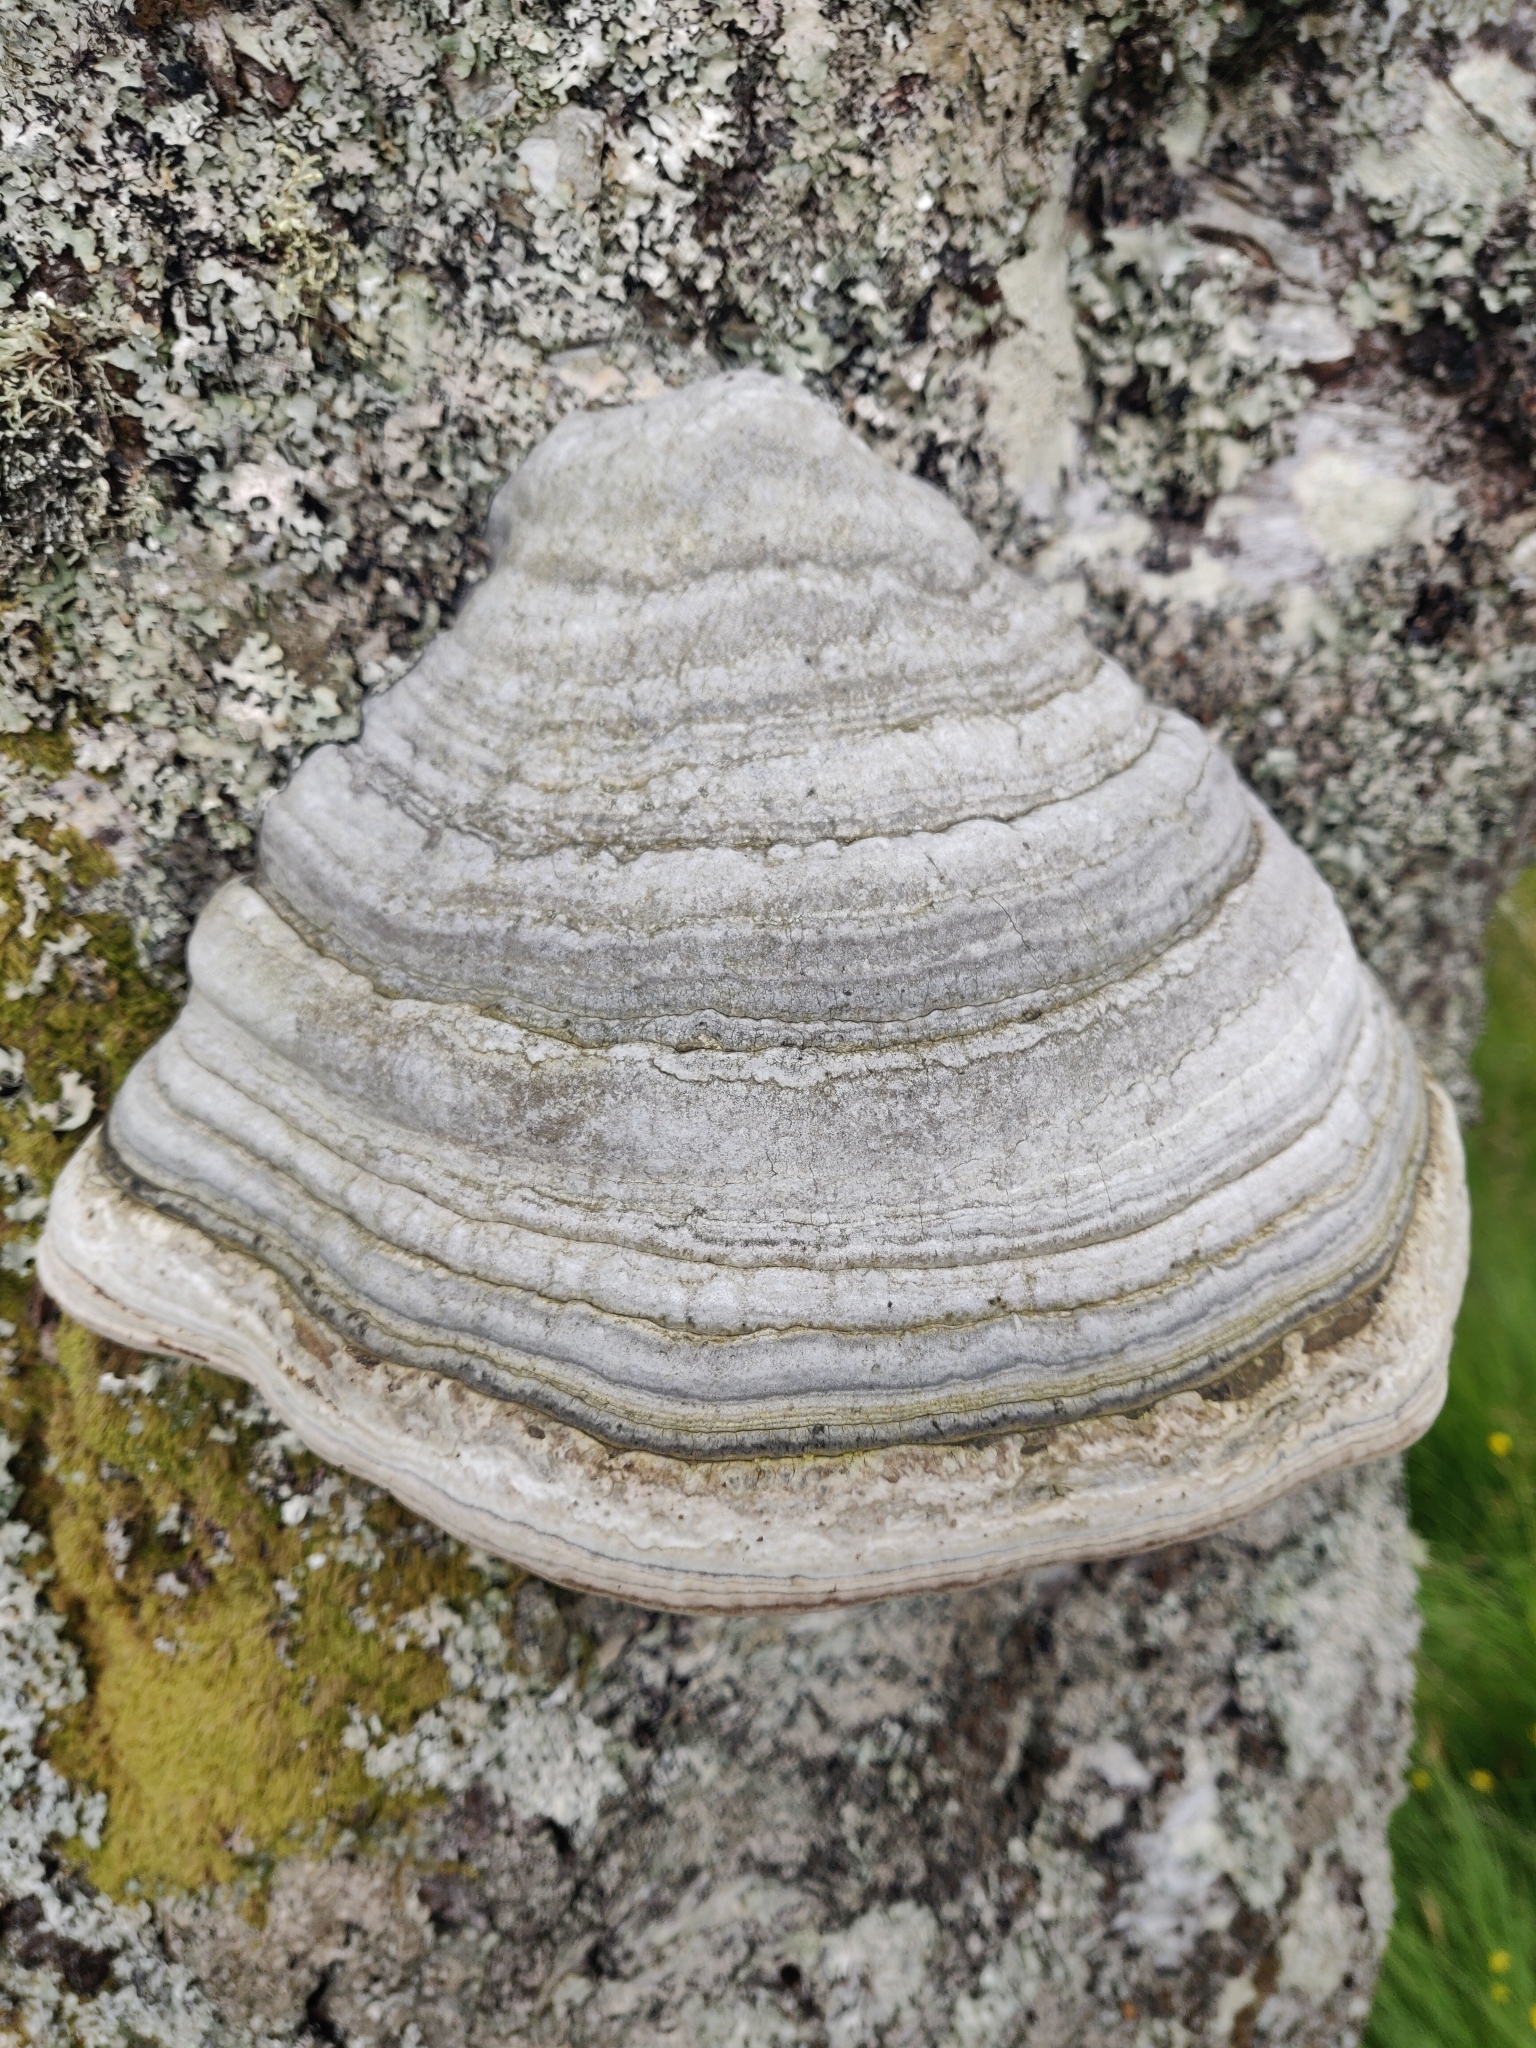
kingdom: Fungi
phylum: Basidiomycota
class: Agaricomycetes
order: Polyporales
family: Polyporaceae
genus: Fomes
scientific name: Fomes fomentarius
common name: Hoof fungus
